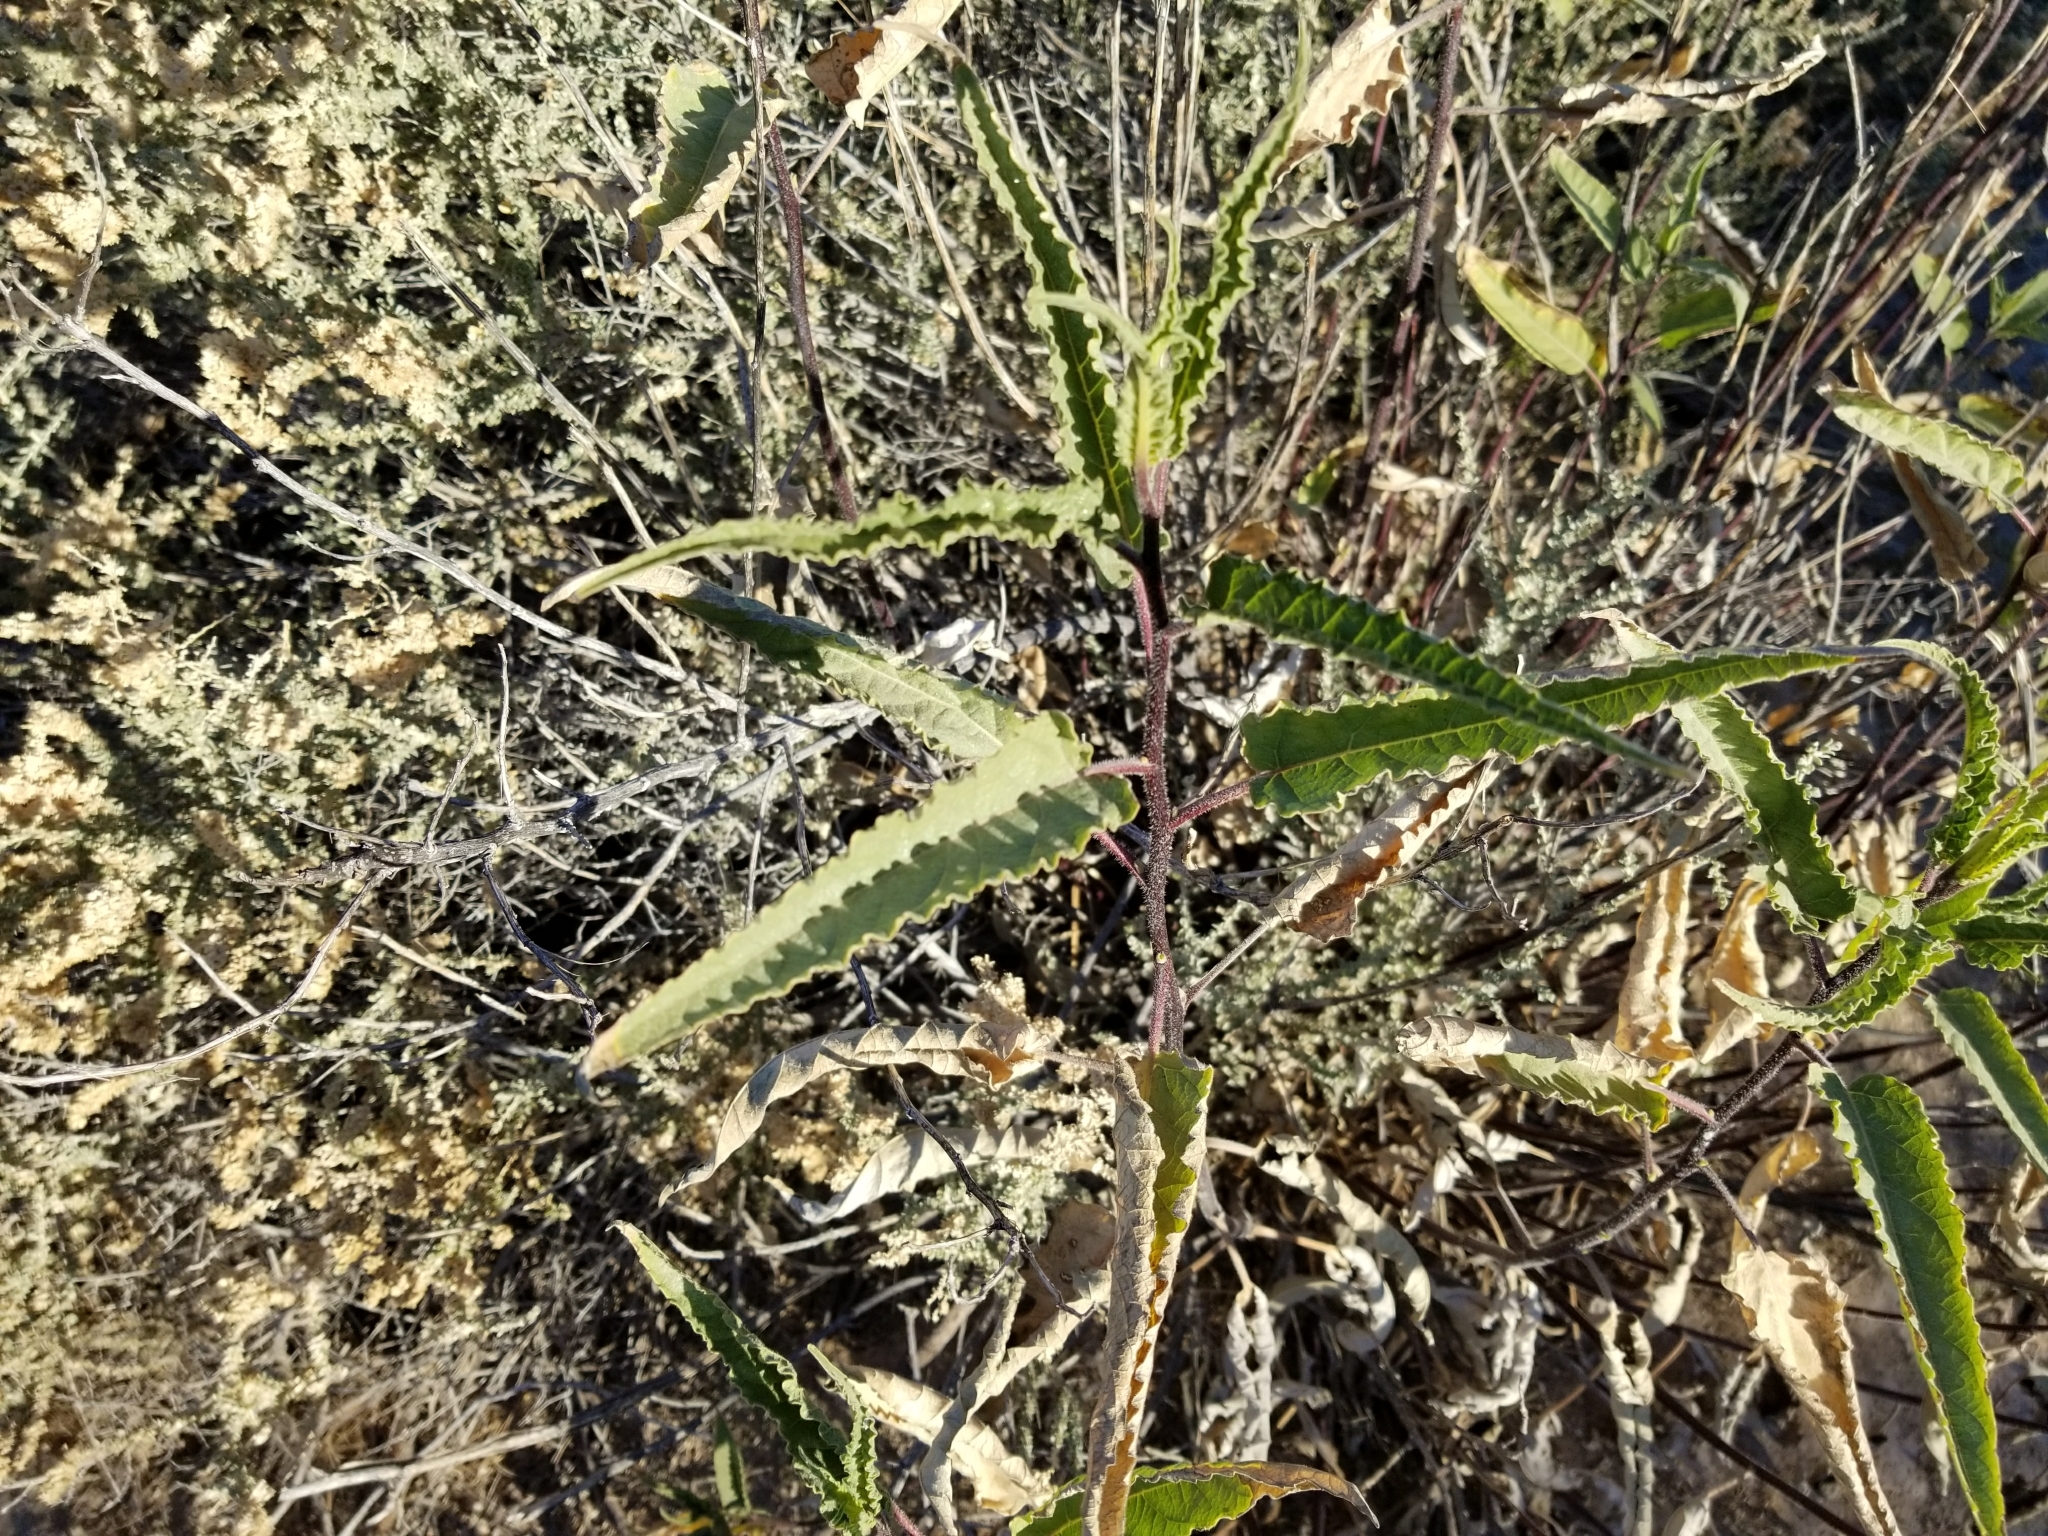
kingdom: Plantae
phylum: Tracheophyta
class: Magnoliopsida
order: Asterales
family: Asteraceae
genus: Ambrosia
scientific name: Ambrosia ambrosioides
